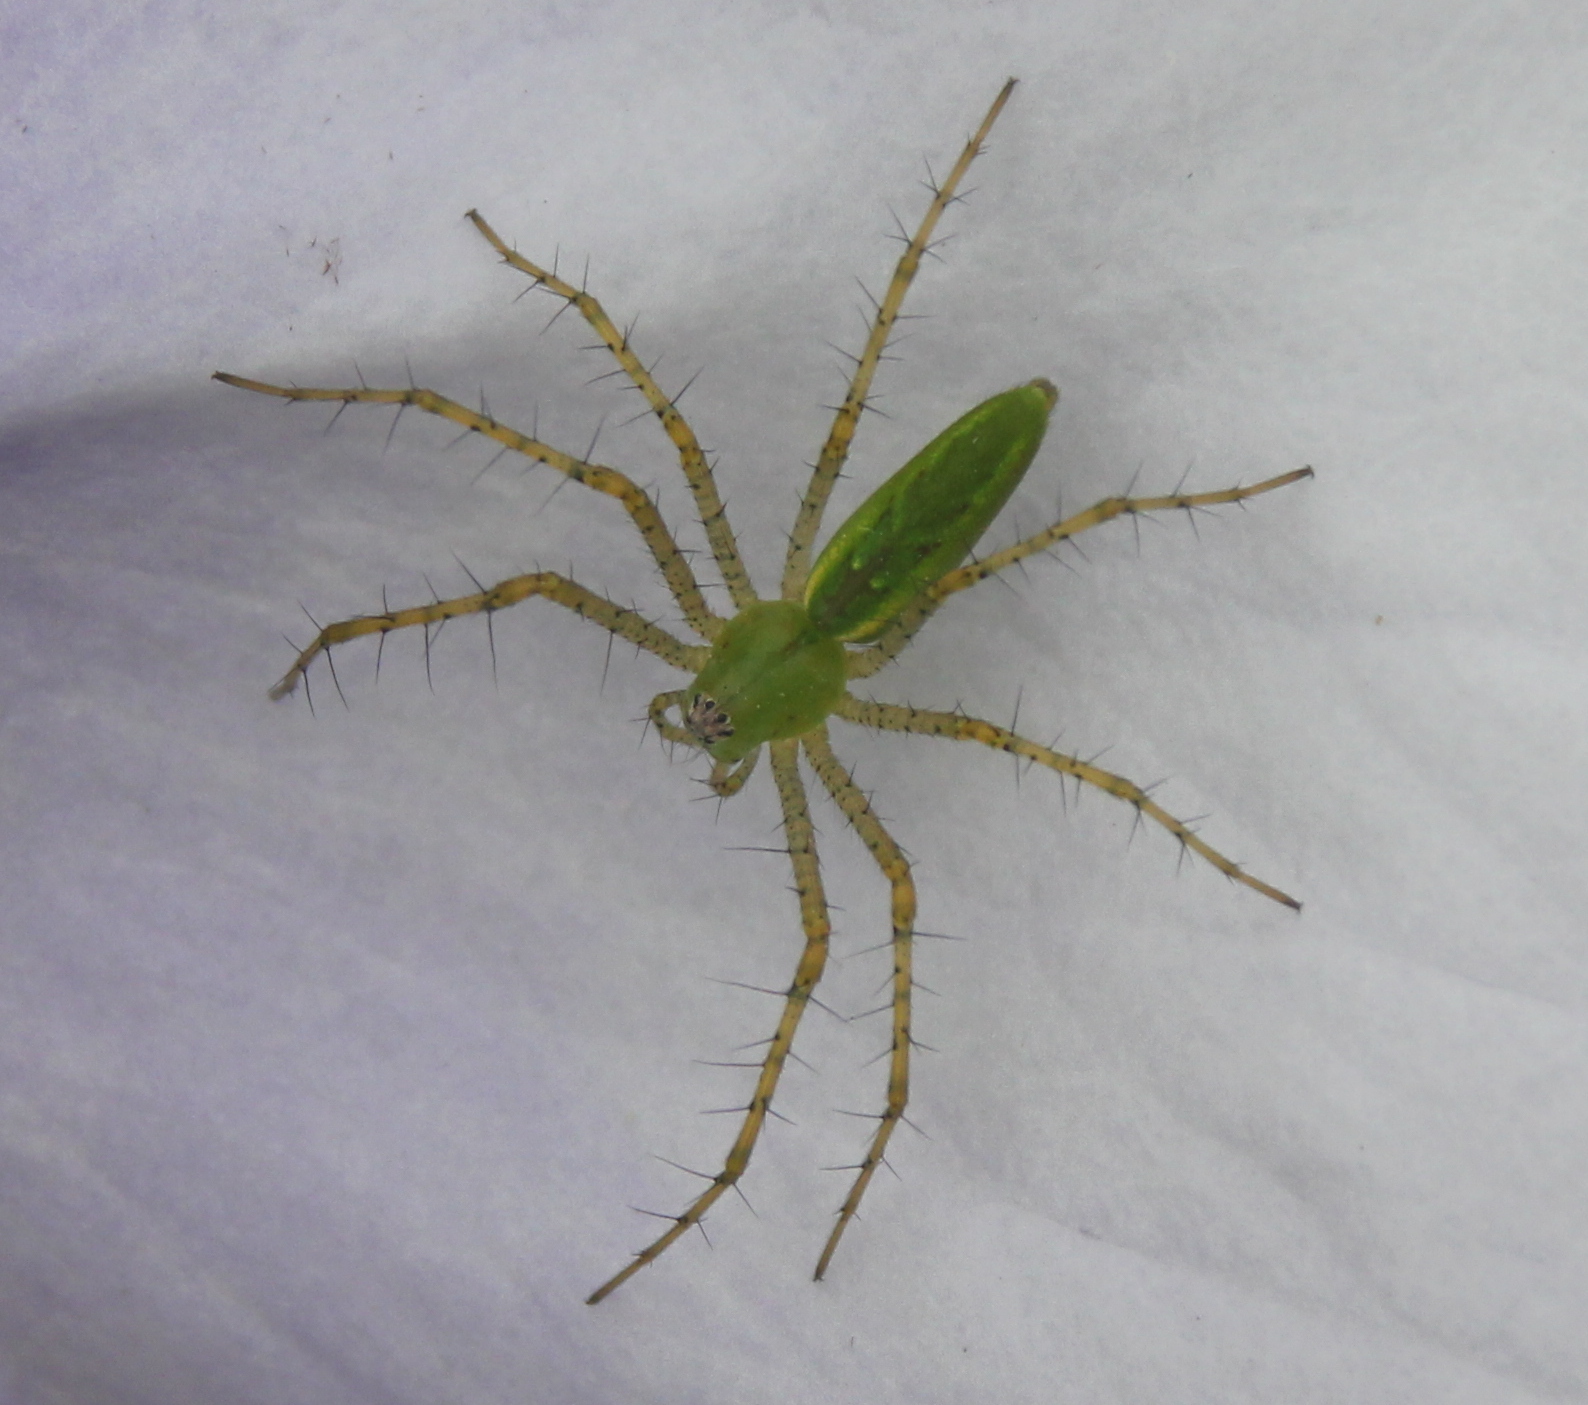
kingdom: Animalia
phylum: Arthropoda
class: Arachnida
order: Araneae
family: Oxyopidae
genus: Peucetia
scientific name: Peucetia viridans
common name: Lynx spiders
